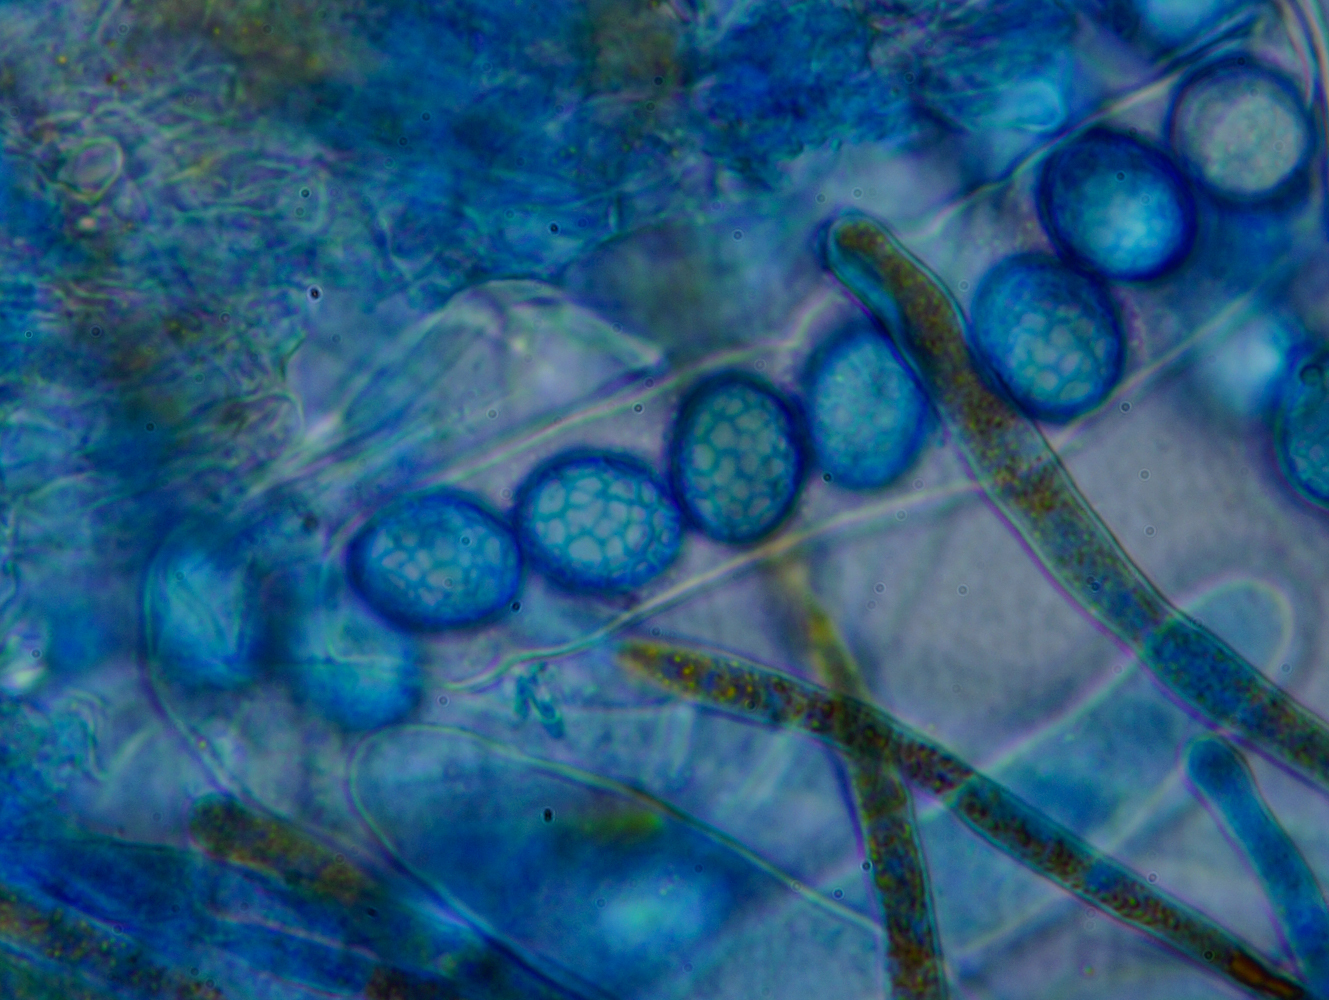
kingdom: Fungi
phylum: Ascomycota
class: Pezizomycetes
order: Pezizales
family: Pyronemataceae
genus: Lamprospora
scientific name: Lamprospora retispora
